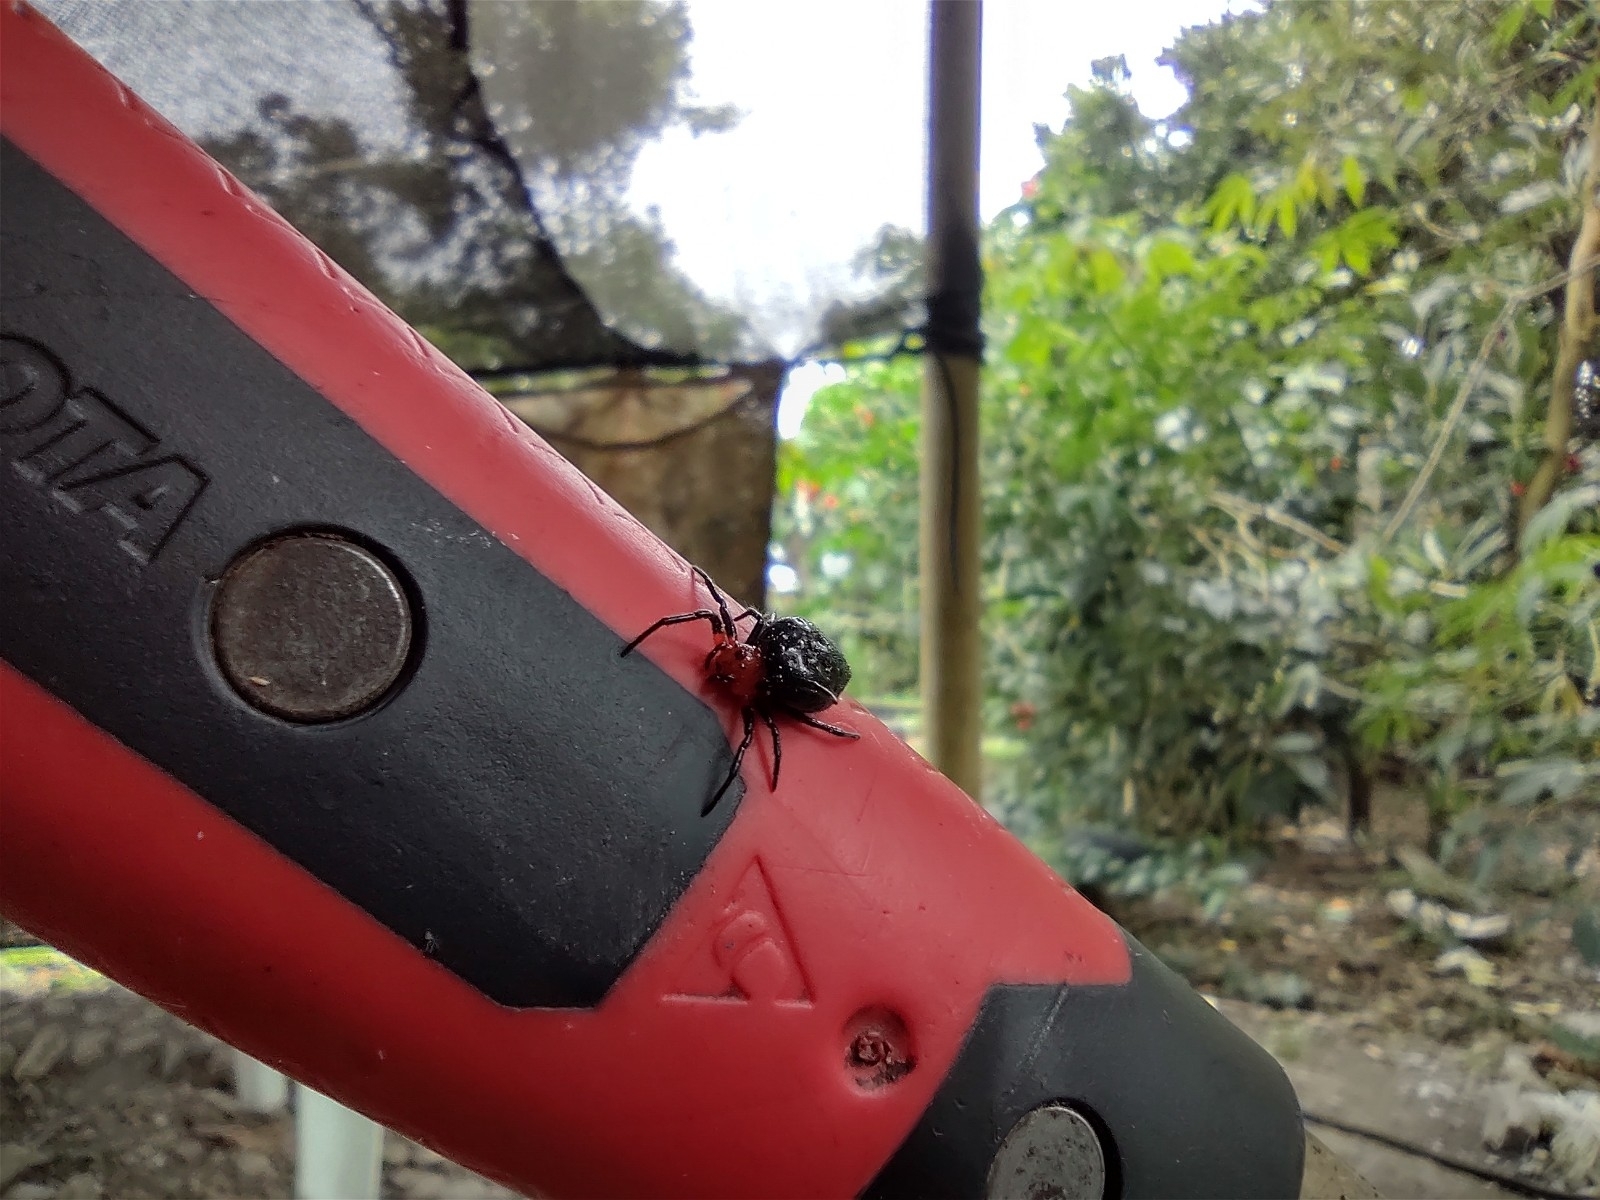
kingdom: Animalia
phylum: Arthropoda
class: Arachnida
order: Araneae
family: Araneidae
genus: Alpaida
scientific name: Alpaida acuta
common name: Orb weavers
